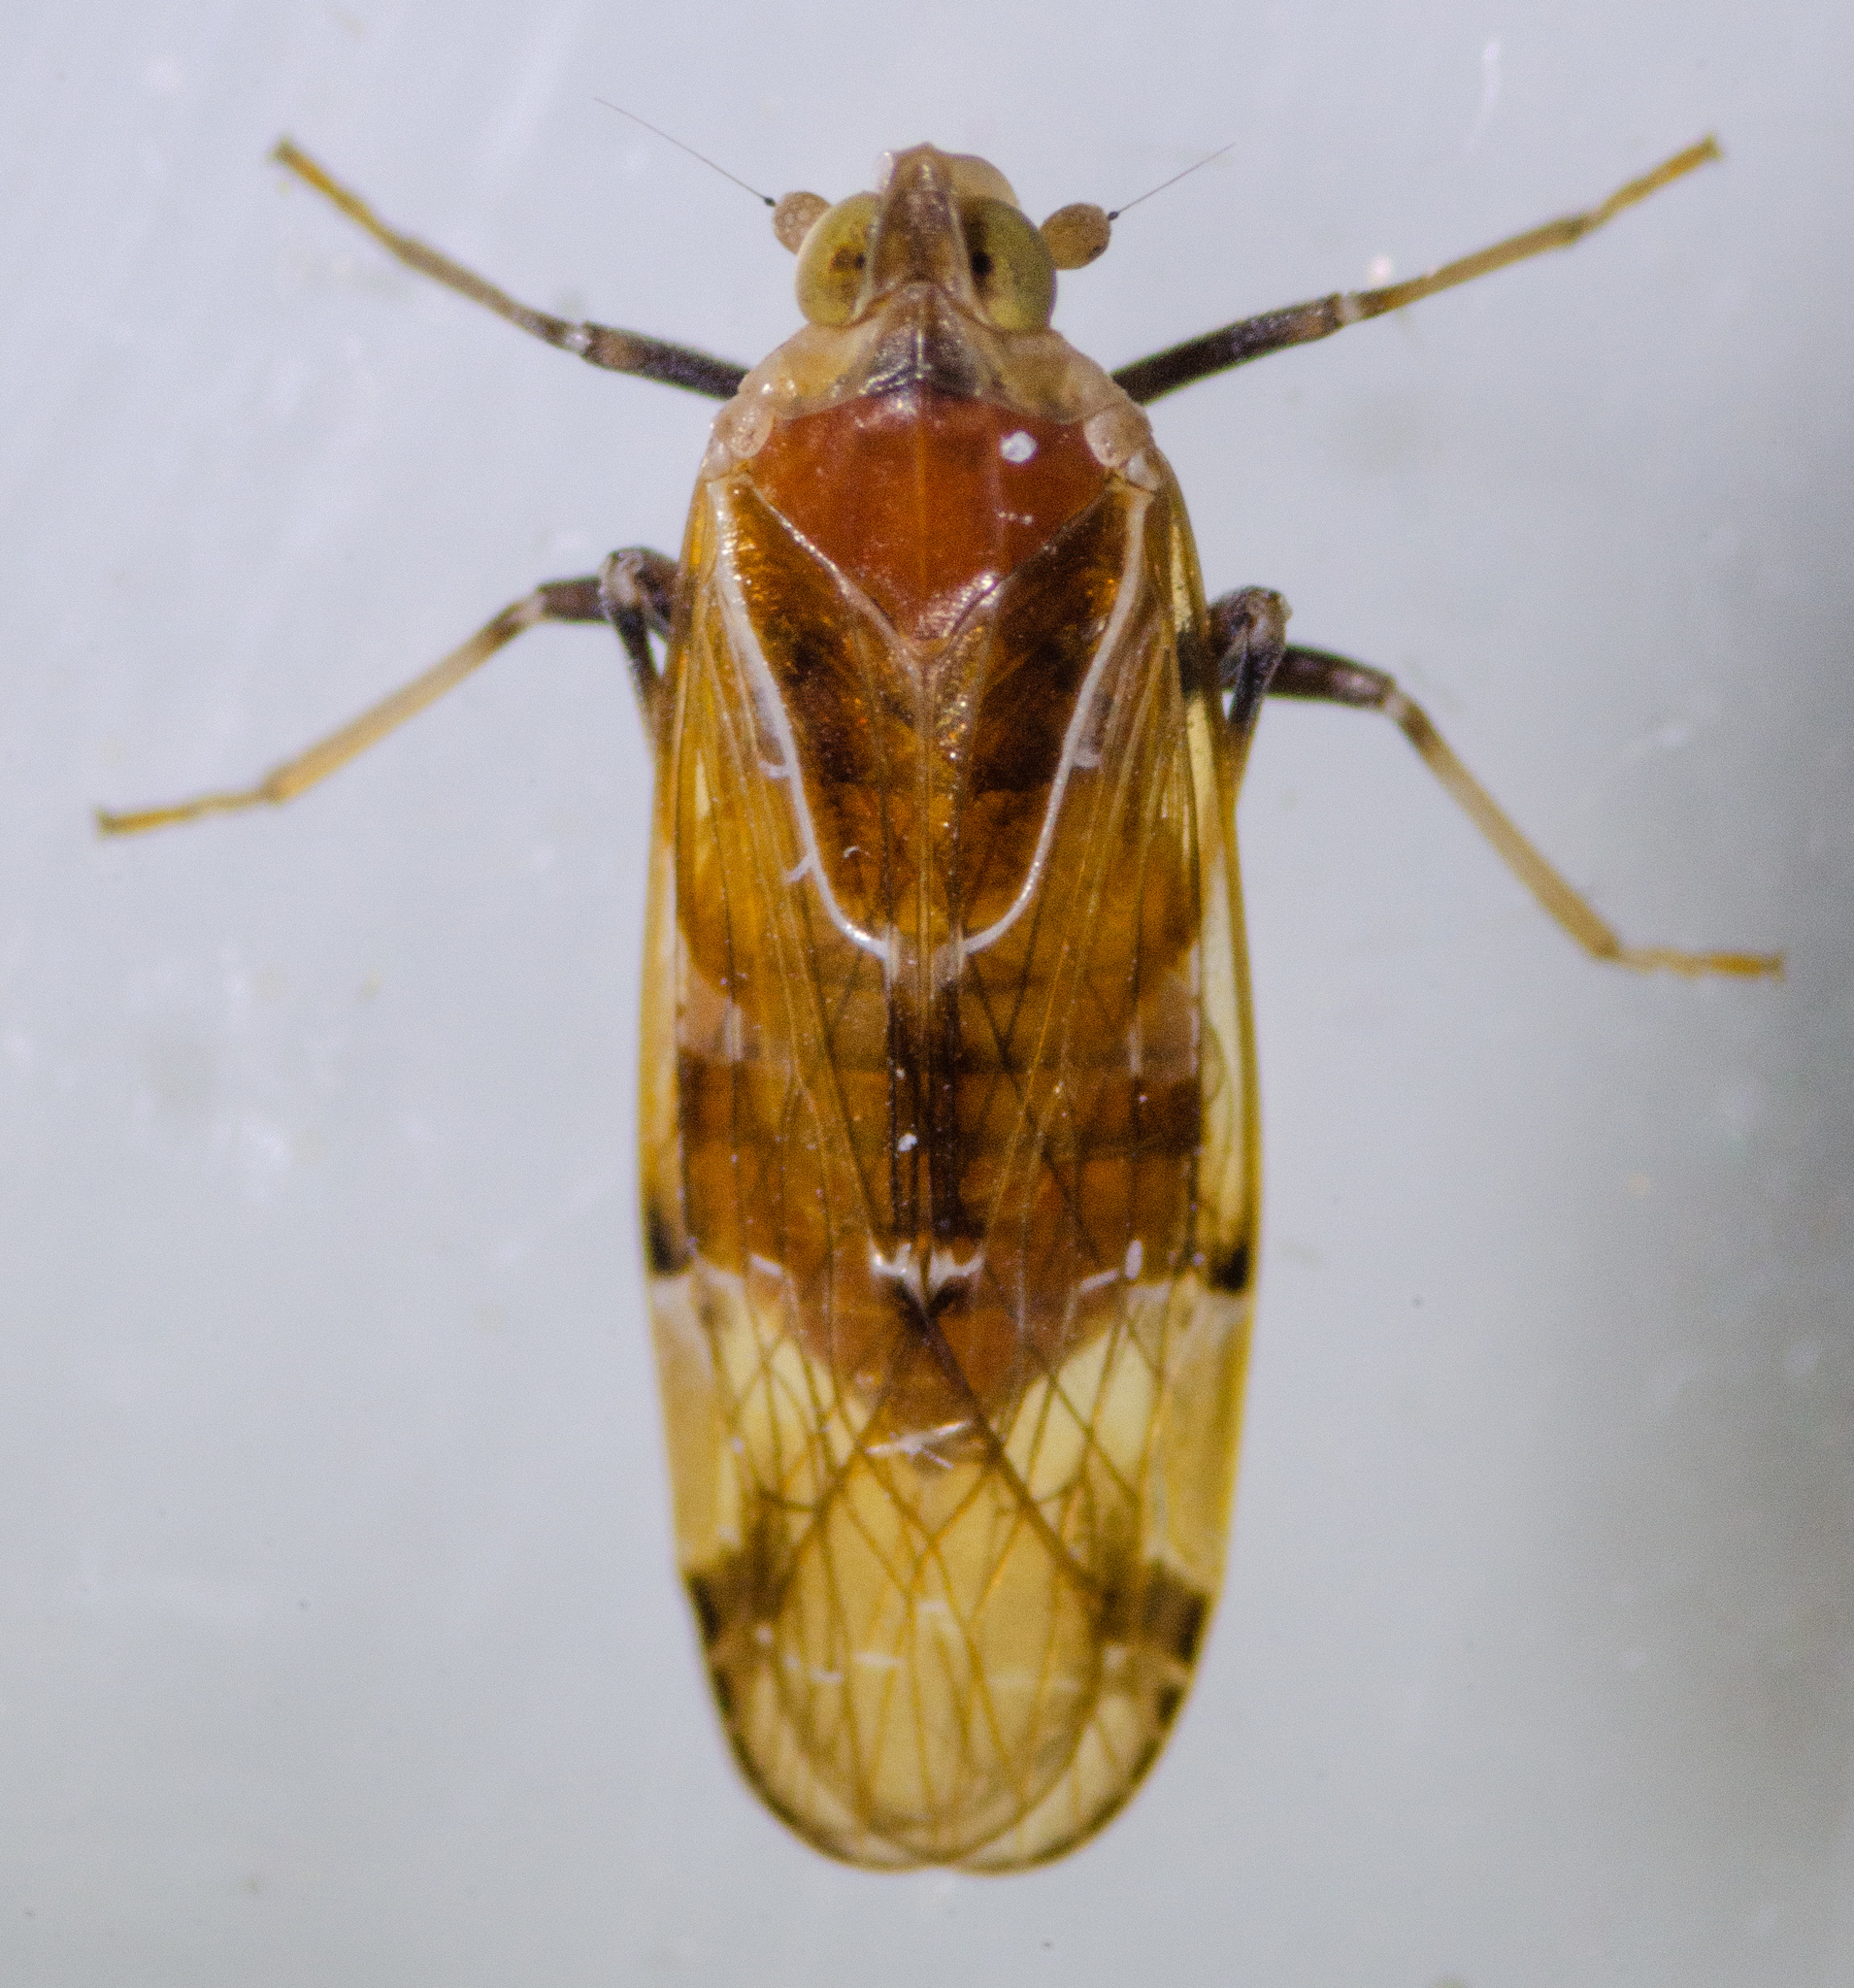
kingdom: Animalia
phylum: Arthropoda
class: Insecta
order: Hemiptera
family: Achilidae
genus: Juniperthia
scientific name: Juniperthia producta
